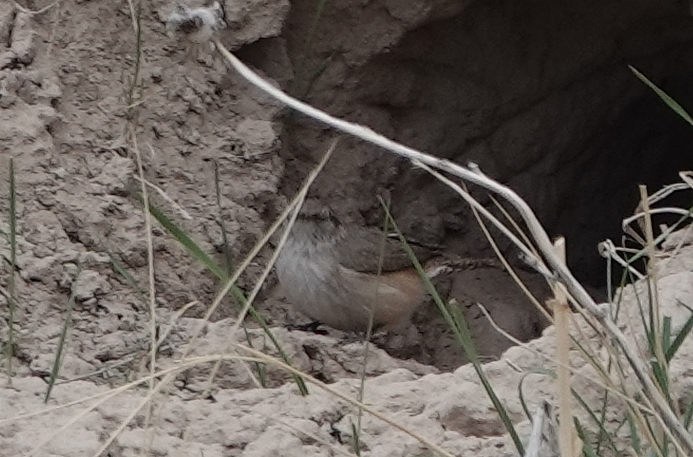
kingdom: Animalia
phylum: Chordata
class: Aves
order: Passeriformes
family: Troglodytidae
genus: Salpinctes
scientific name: Salpinctes obsoletus
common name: Rock wren
